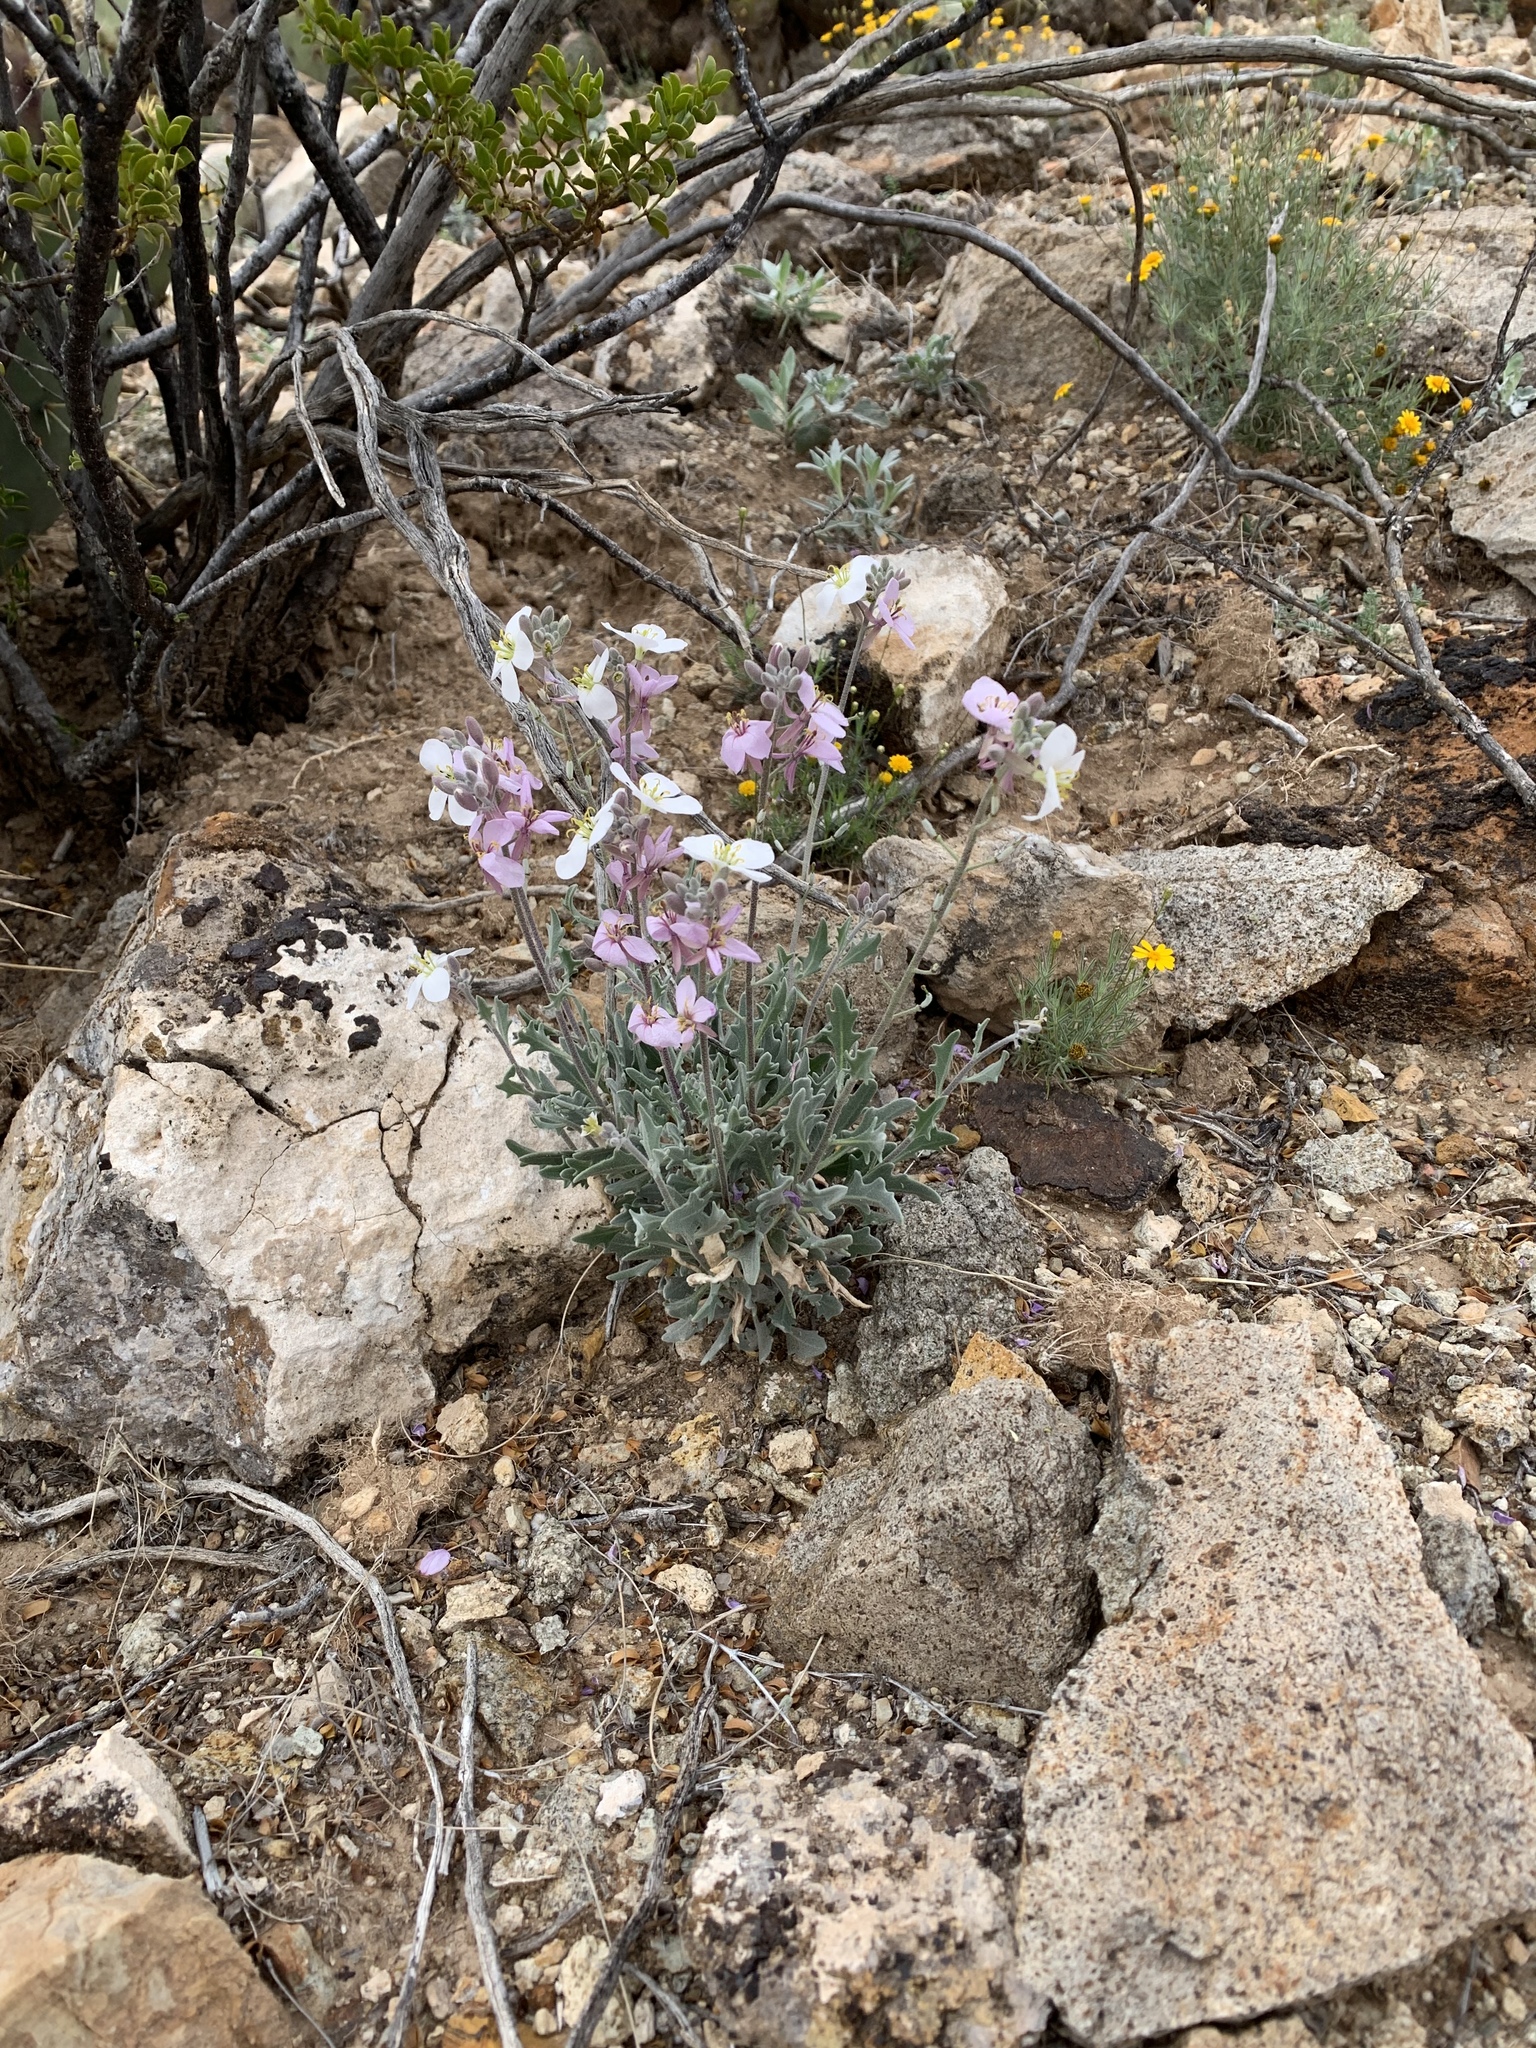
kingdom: Plantae
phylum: Tracheophyta
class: Magnoliopsida
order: Brassicales
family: Brassicaceae
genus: Nerisyrenia
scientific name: Nerisyrenia camporum
